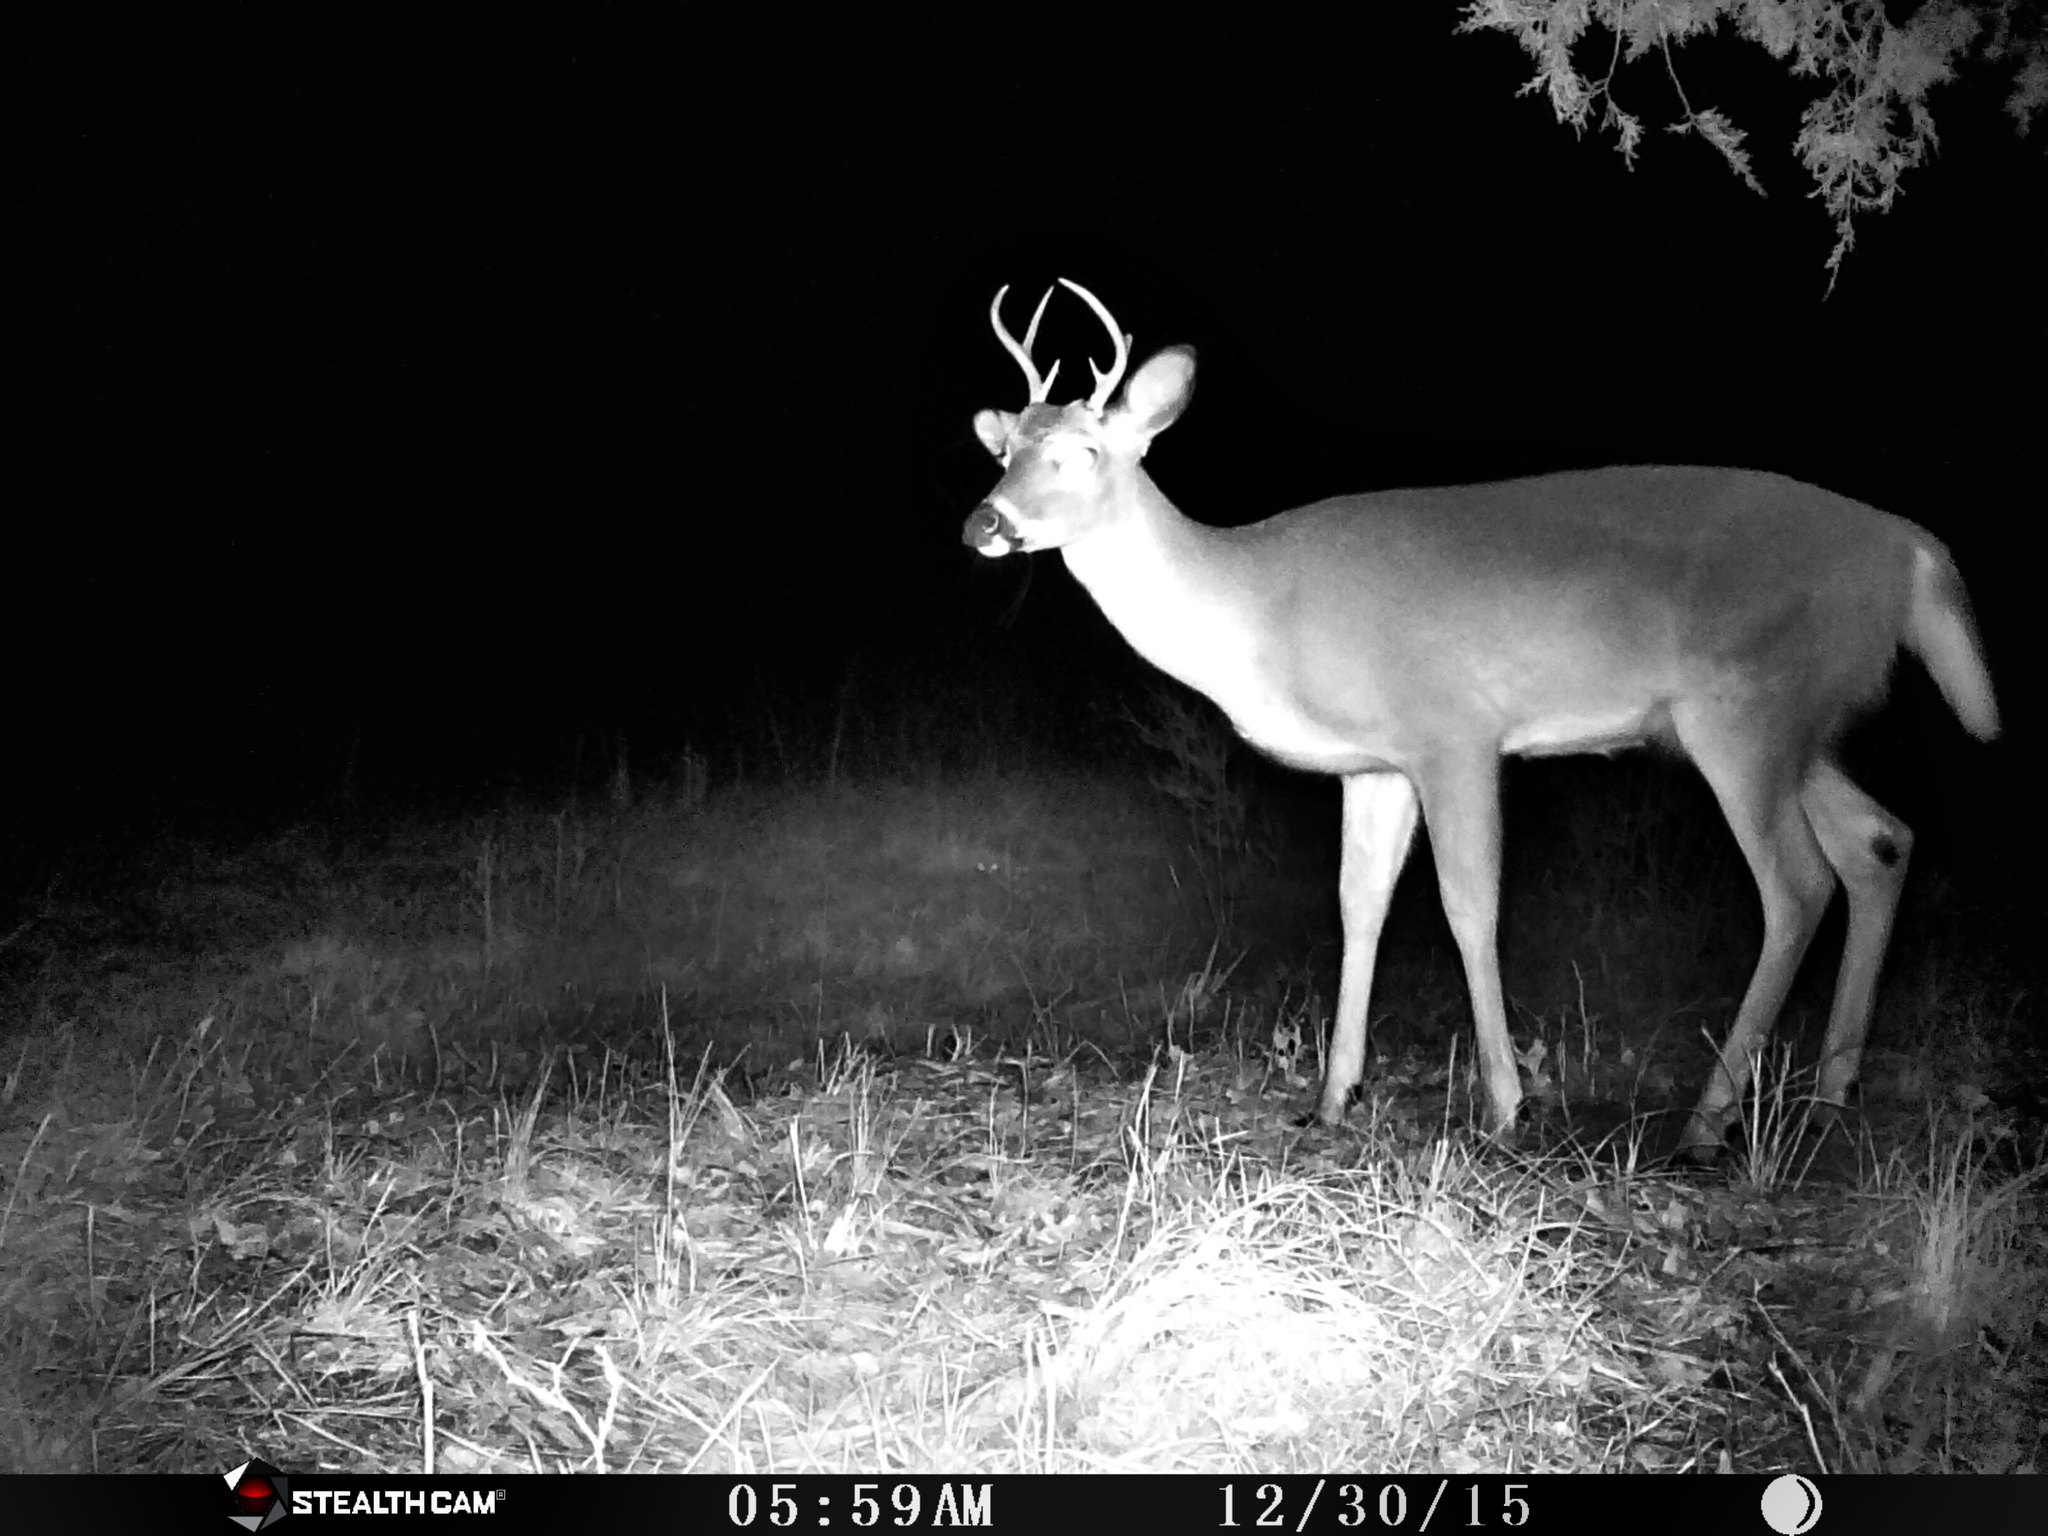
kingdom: Animalia
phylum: Chordata
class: Mammalia
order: Artiodactyla
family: Cervidae
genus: Odocoileus
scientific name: Odocoileus virginianus
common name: White-tailed deer
